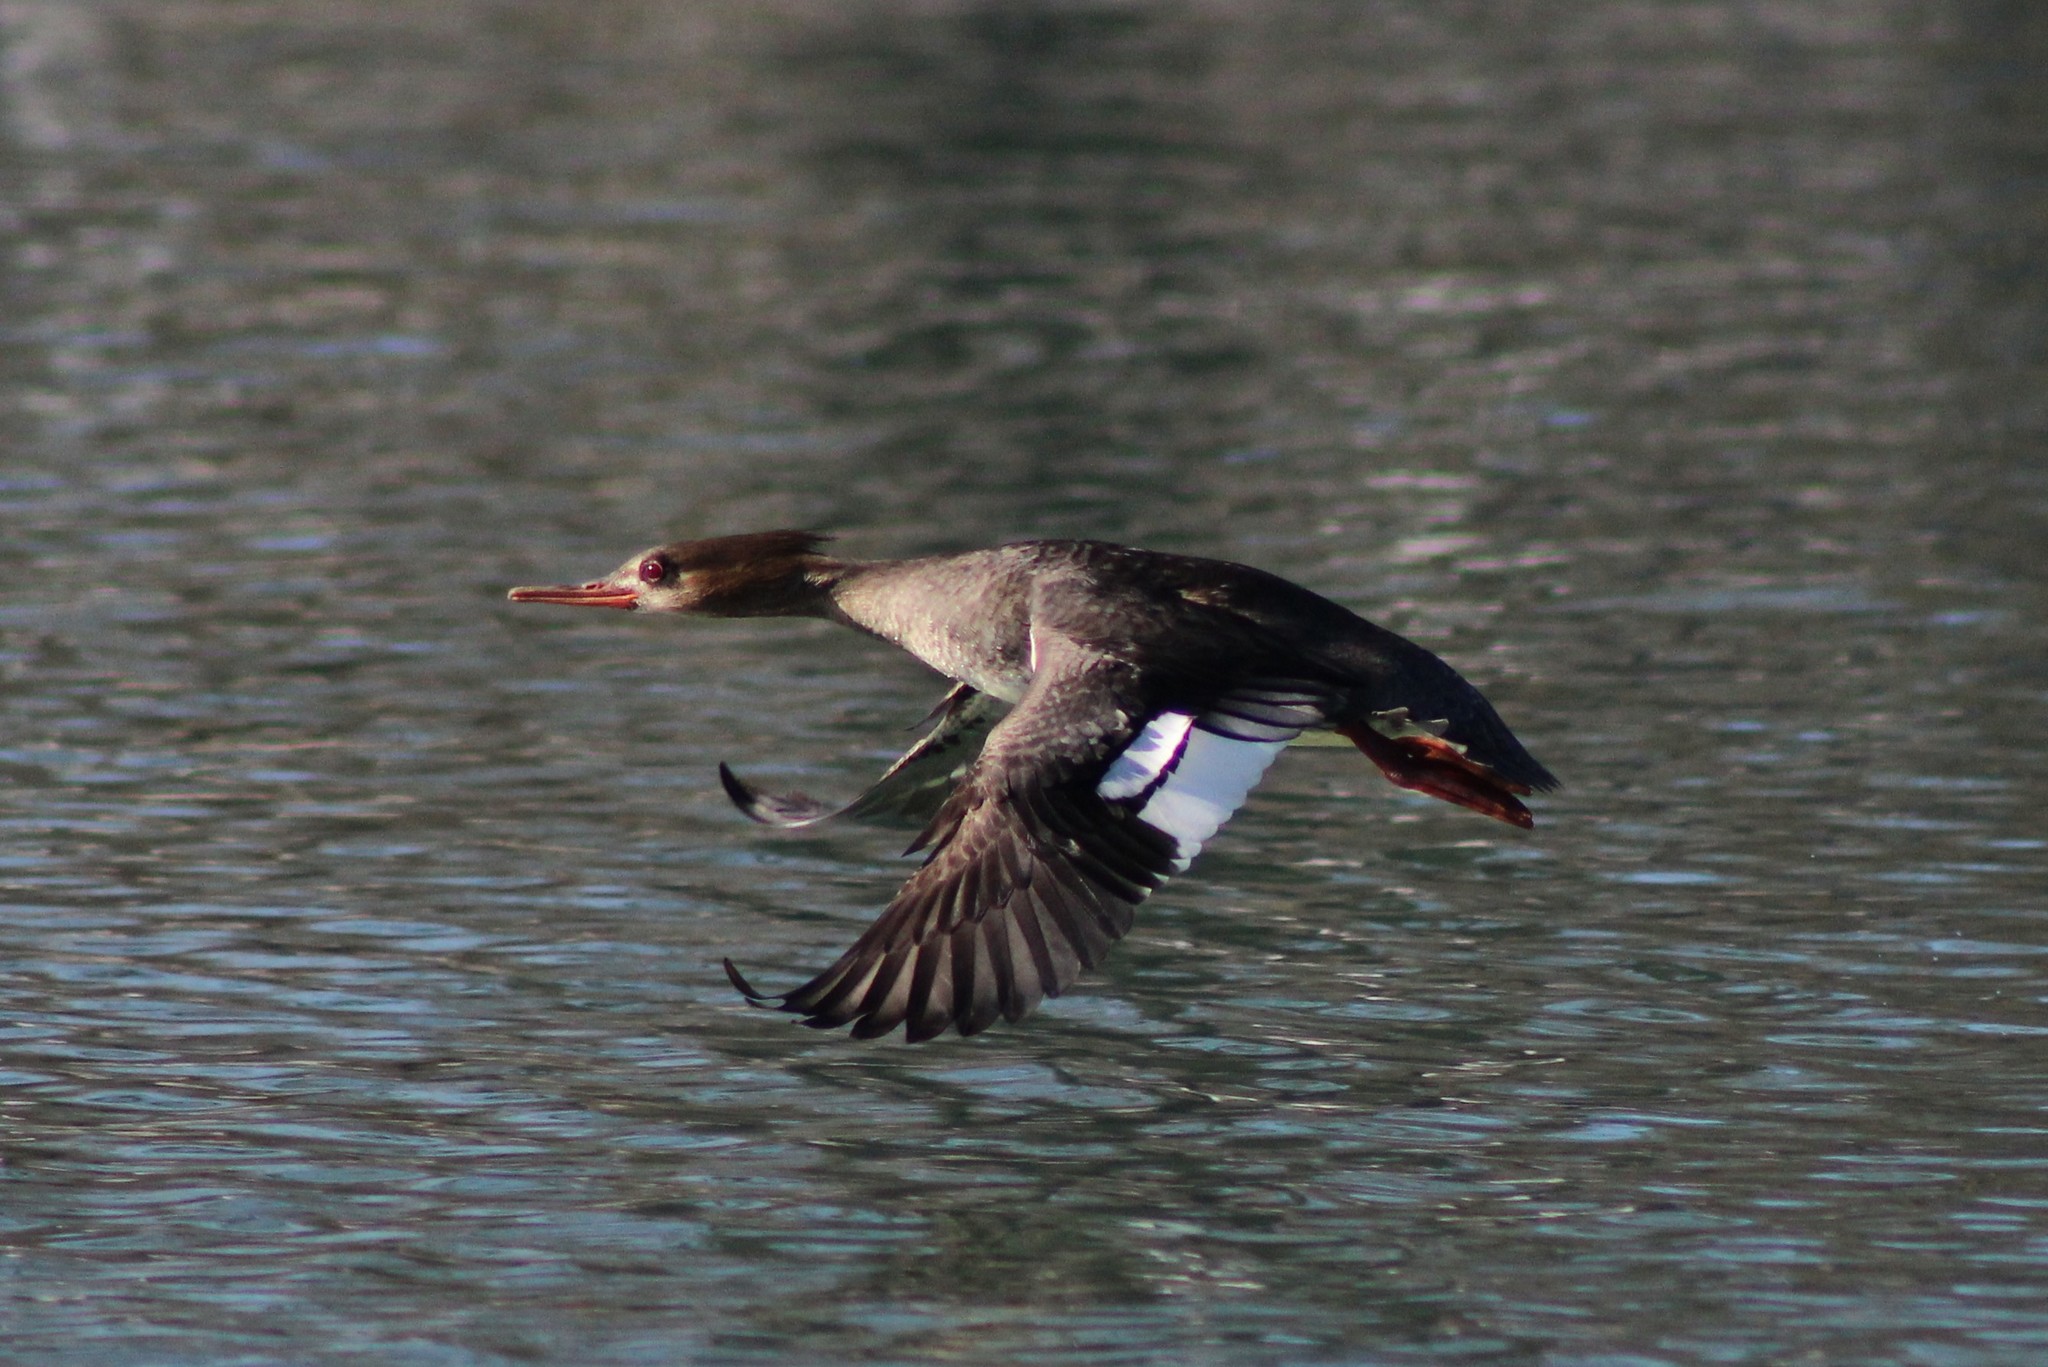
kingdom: Animalia
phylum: Chordata
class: Aves
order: Anseriformes
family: Anatidae
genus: Mergus
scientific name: Mergus serrator
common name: Red-breasted merganser
